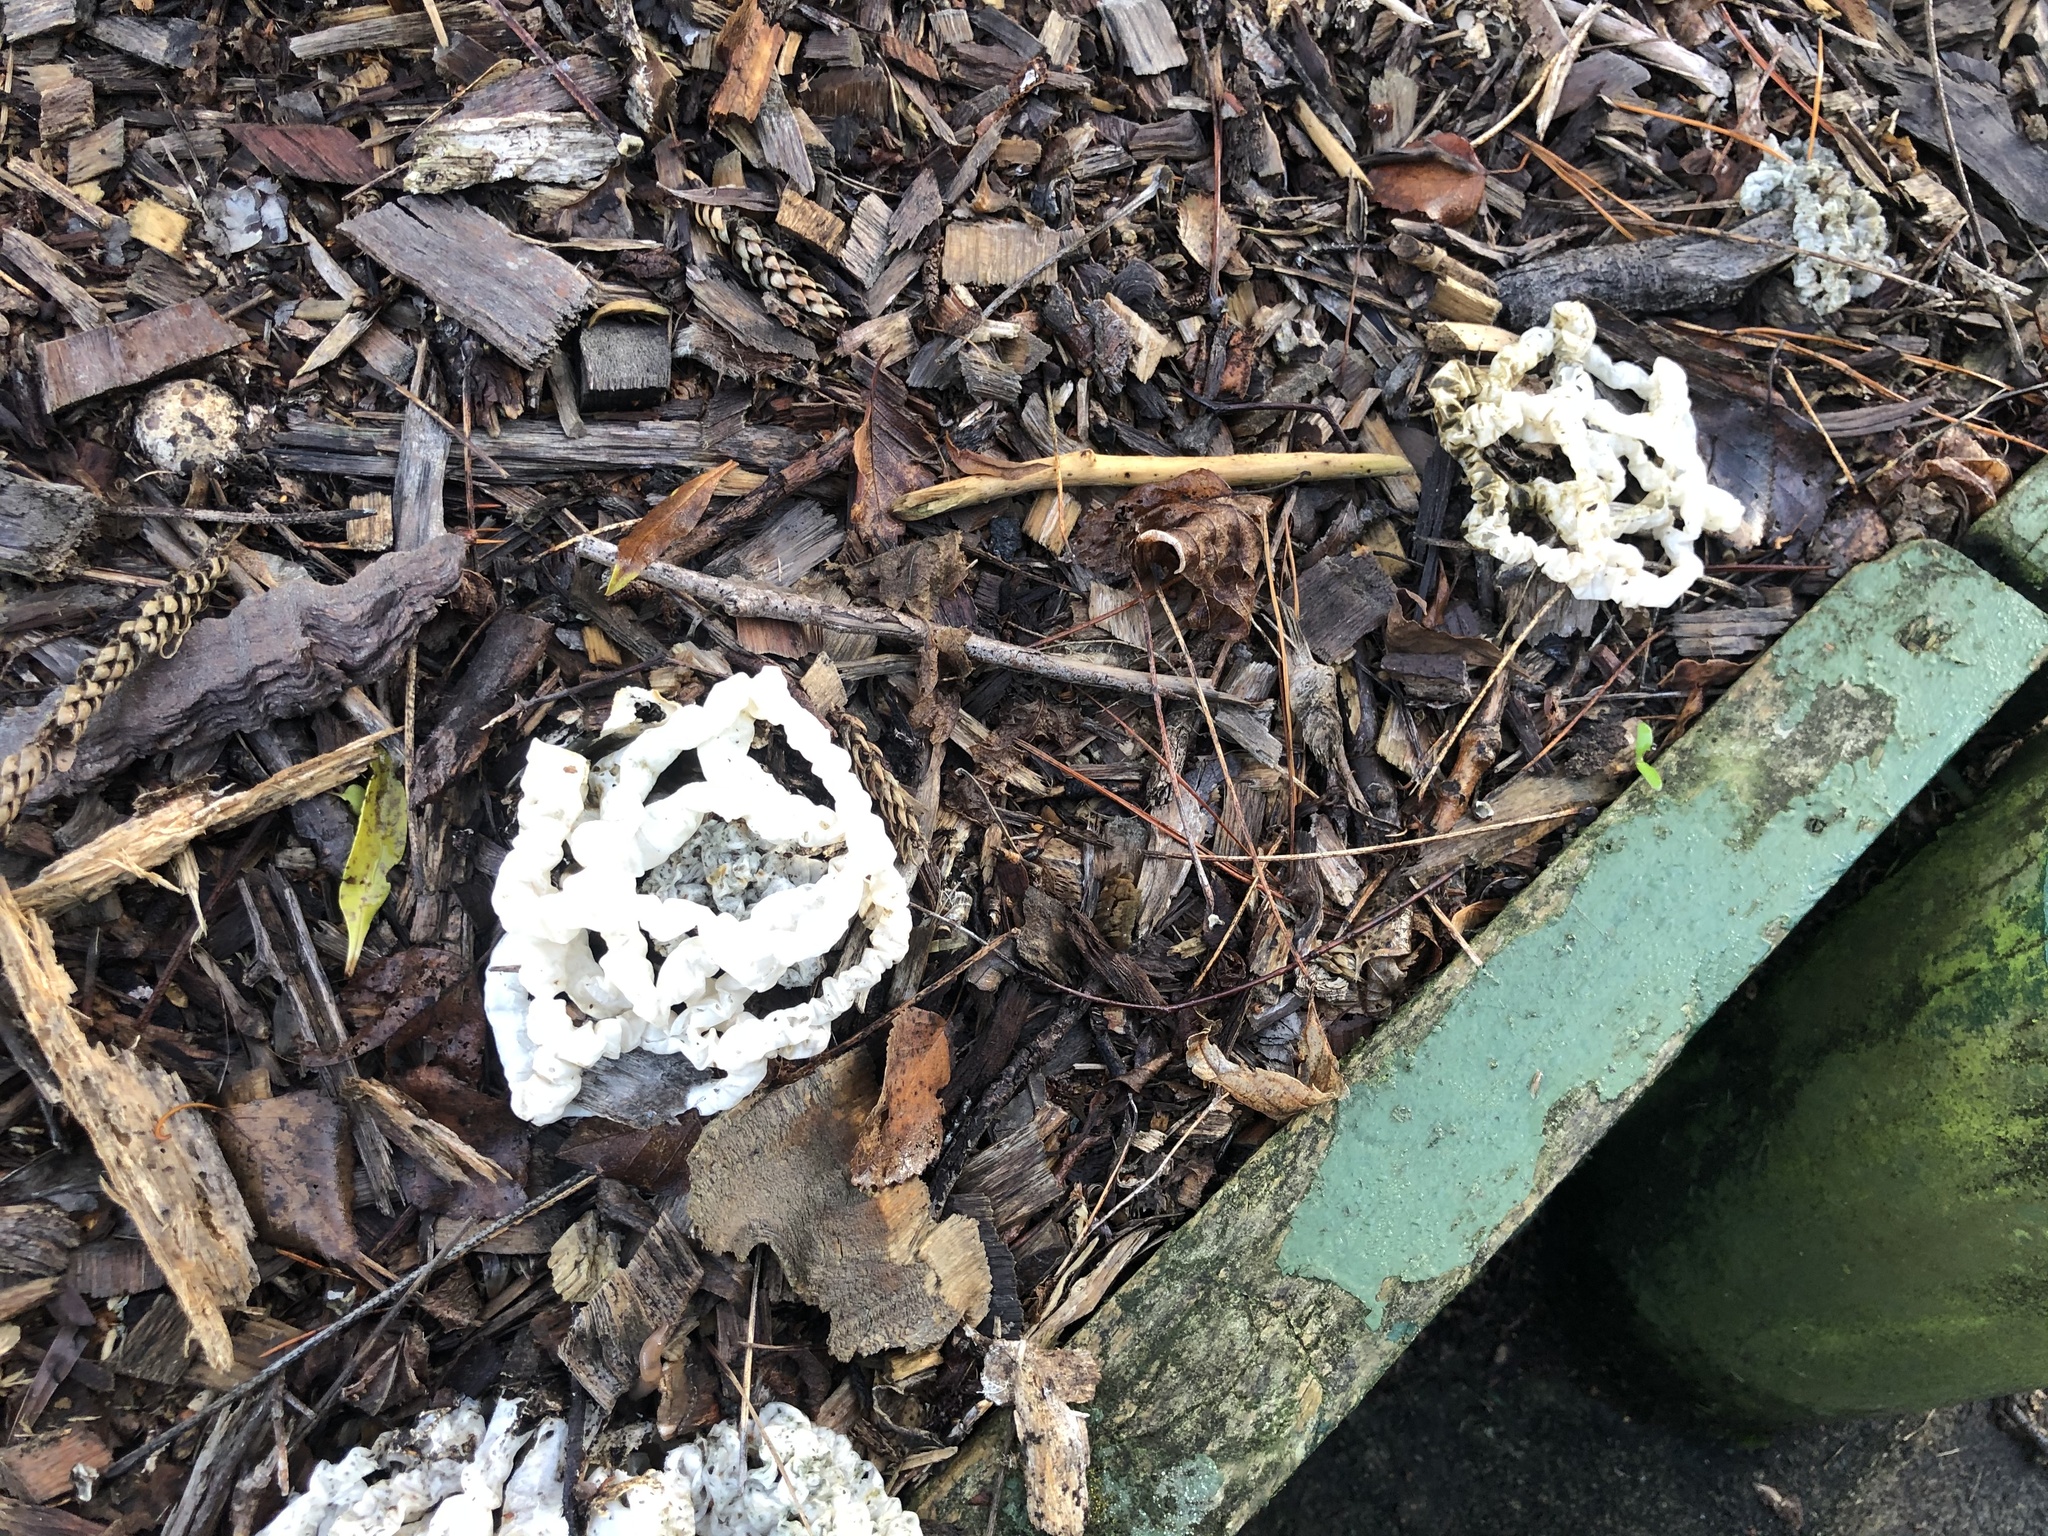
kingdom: Fungi
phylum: Basidiomycota
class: Agaricomycetes
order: Phallales
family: Phallaceae
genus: Ileodictyon
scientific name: Ileodictyon cibarium
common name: Basket fungus
